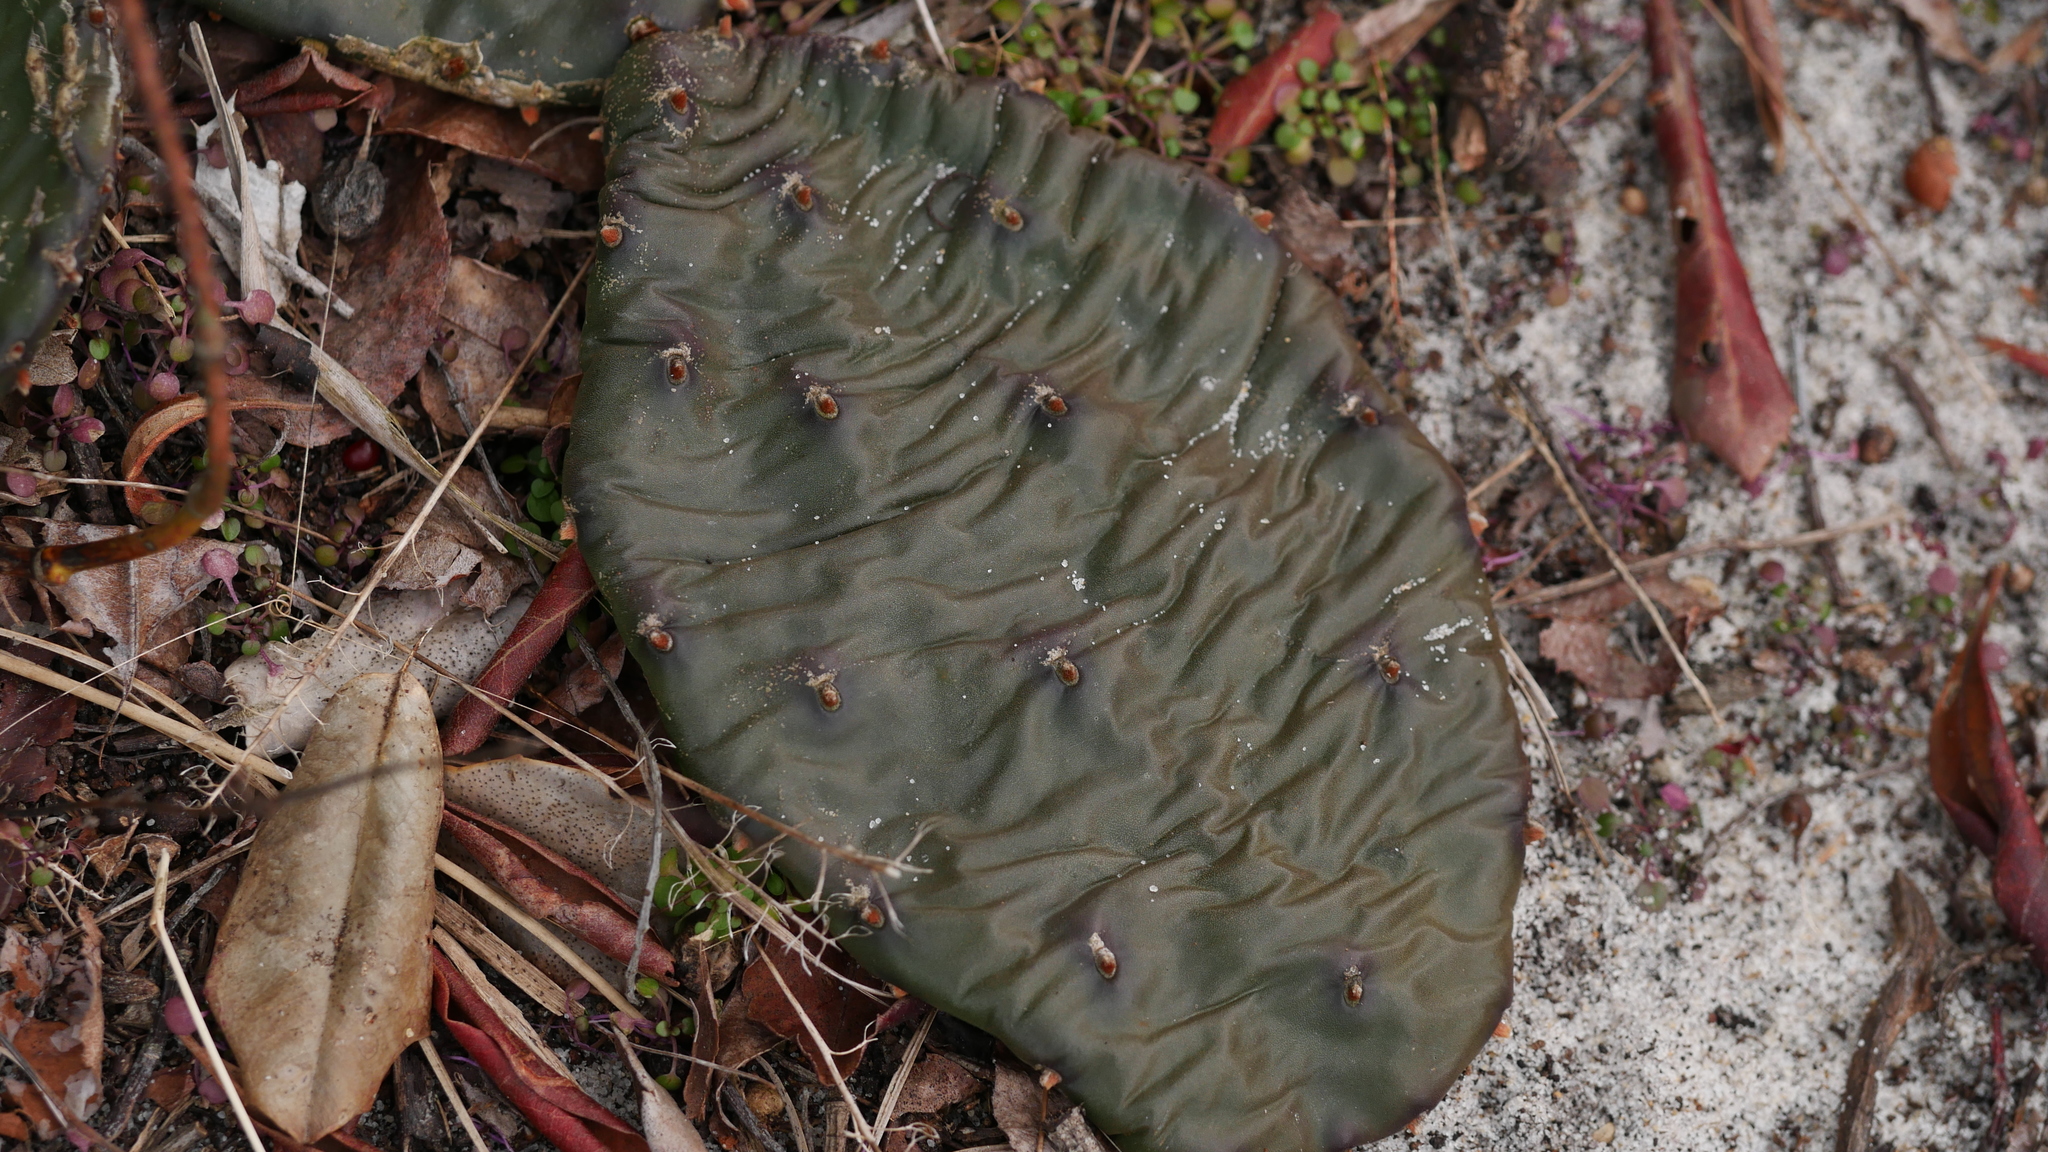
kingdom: Plantae
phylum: Tracheophyta
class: Magnoliopsida
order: Caryophyllales
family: Cactaceae
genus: Opuntia
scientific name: Opuntia humifusa
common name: Eastern prickly-pear
